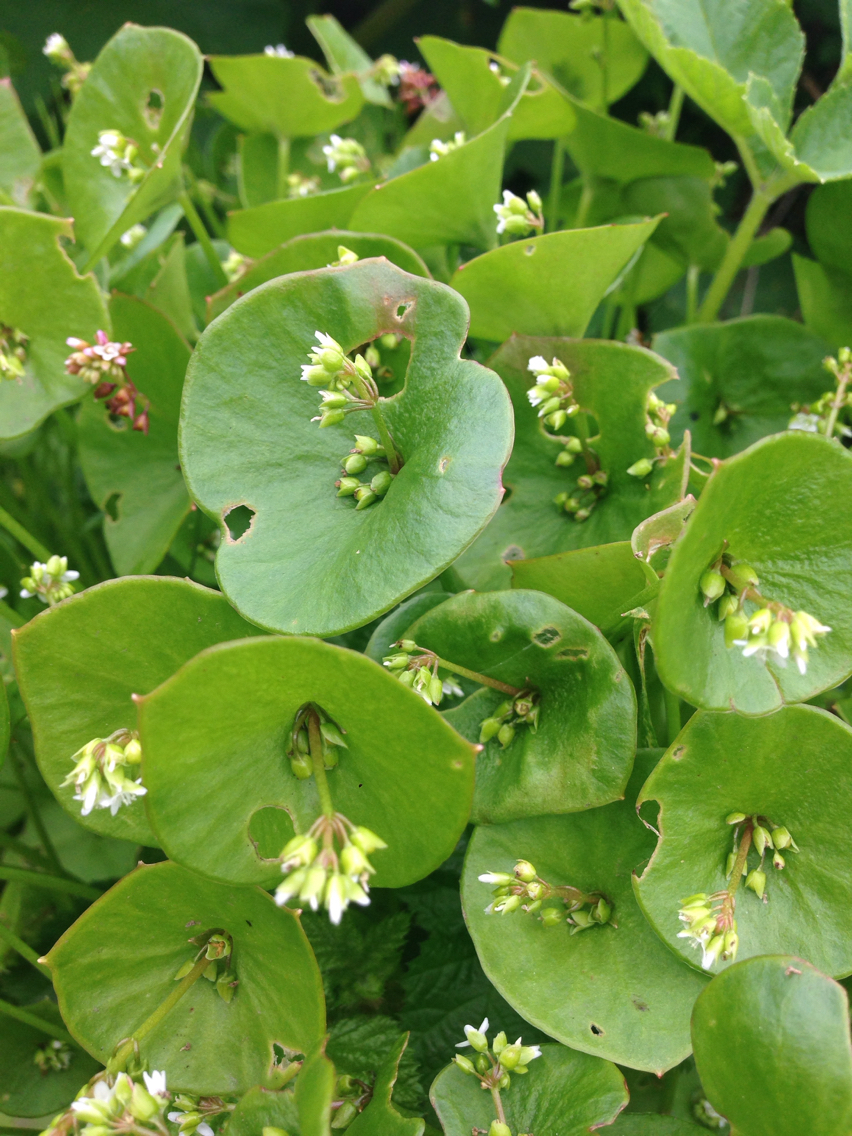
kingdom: Plantae
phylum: Tracheophyta
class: Magnoliopsida
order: Caryophyllales
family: Montiaceae
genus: Claytonia
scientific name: Claytonia perfoliata
